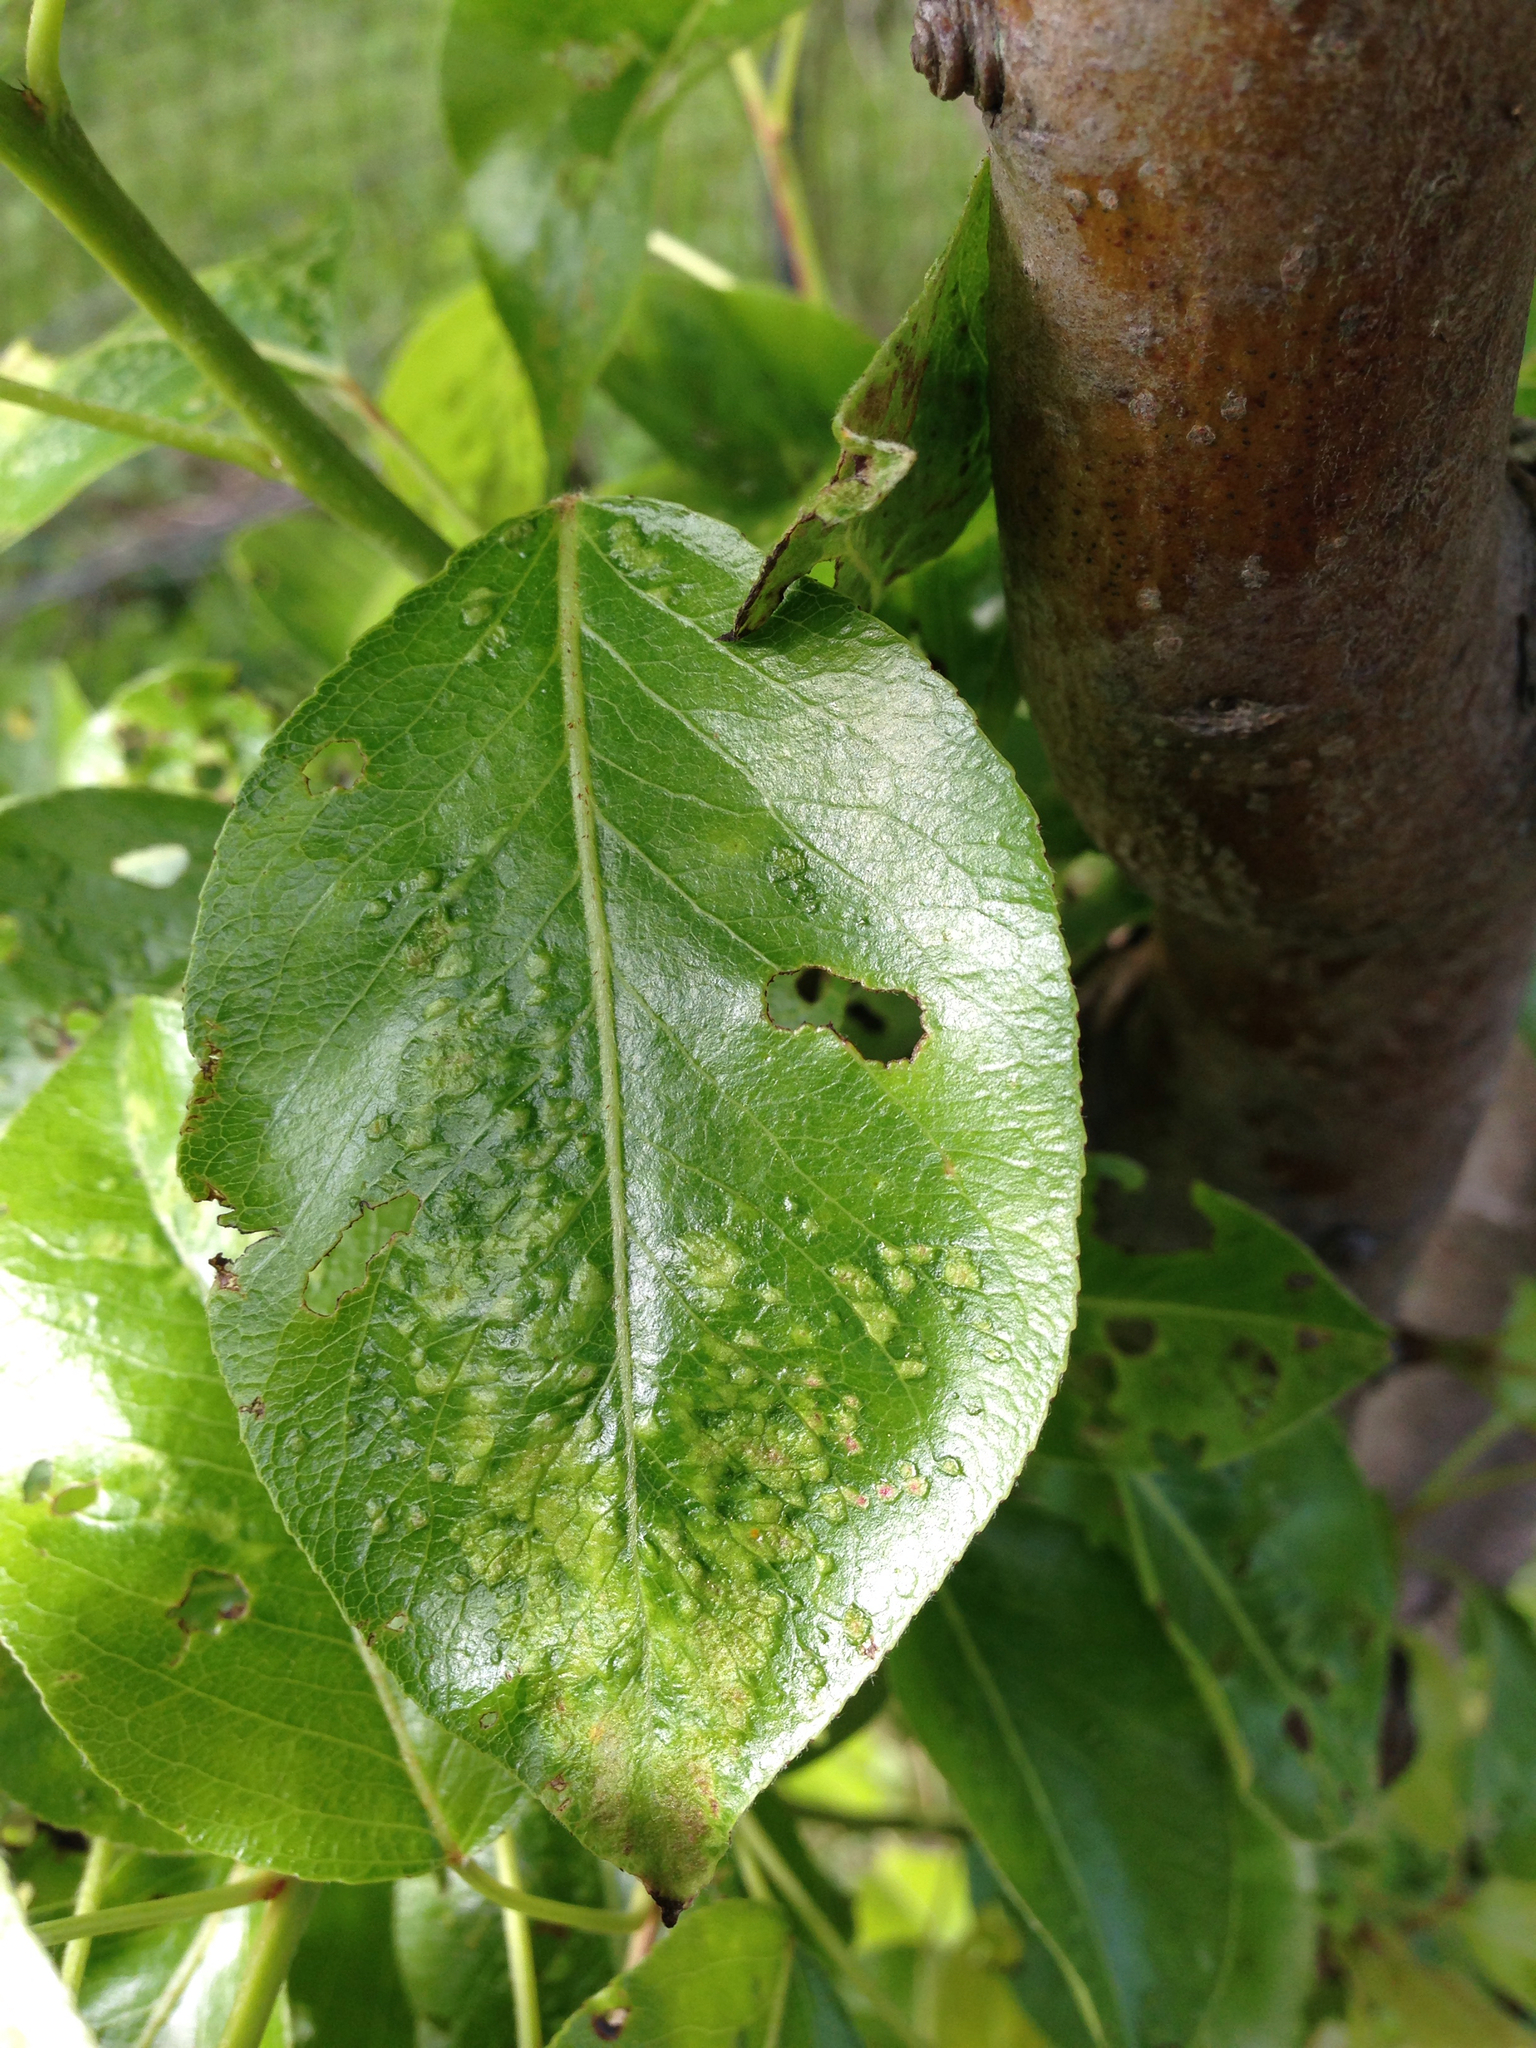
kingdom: Animalia
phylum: Arthropoda
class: Arachnida
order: Trombidiformes
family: Eriophyidae
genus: Eriophyes
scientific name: Eriophyes pyri
